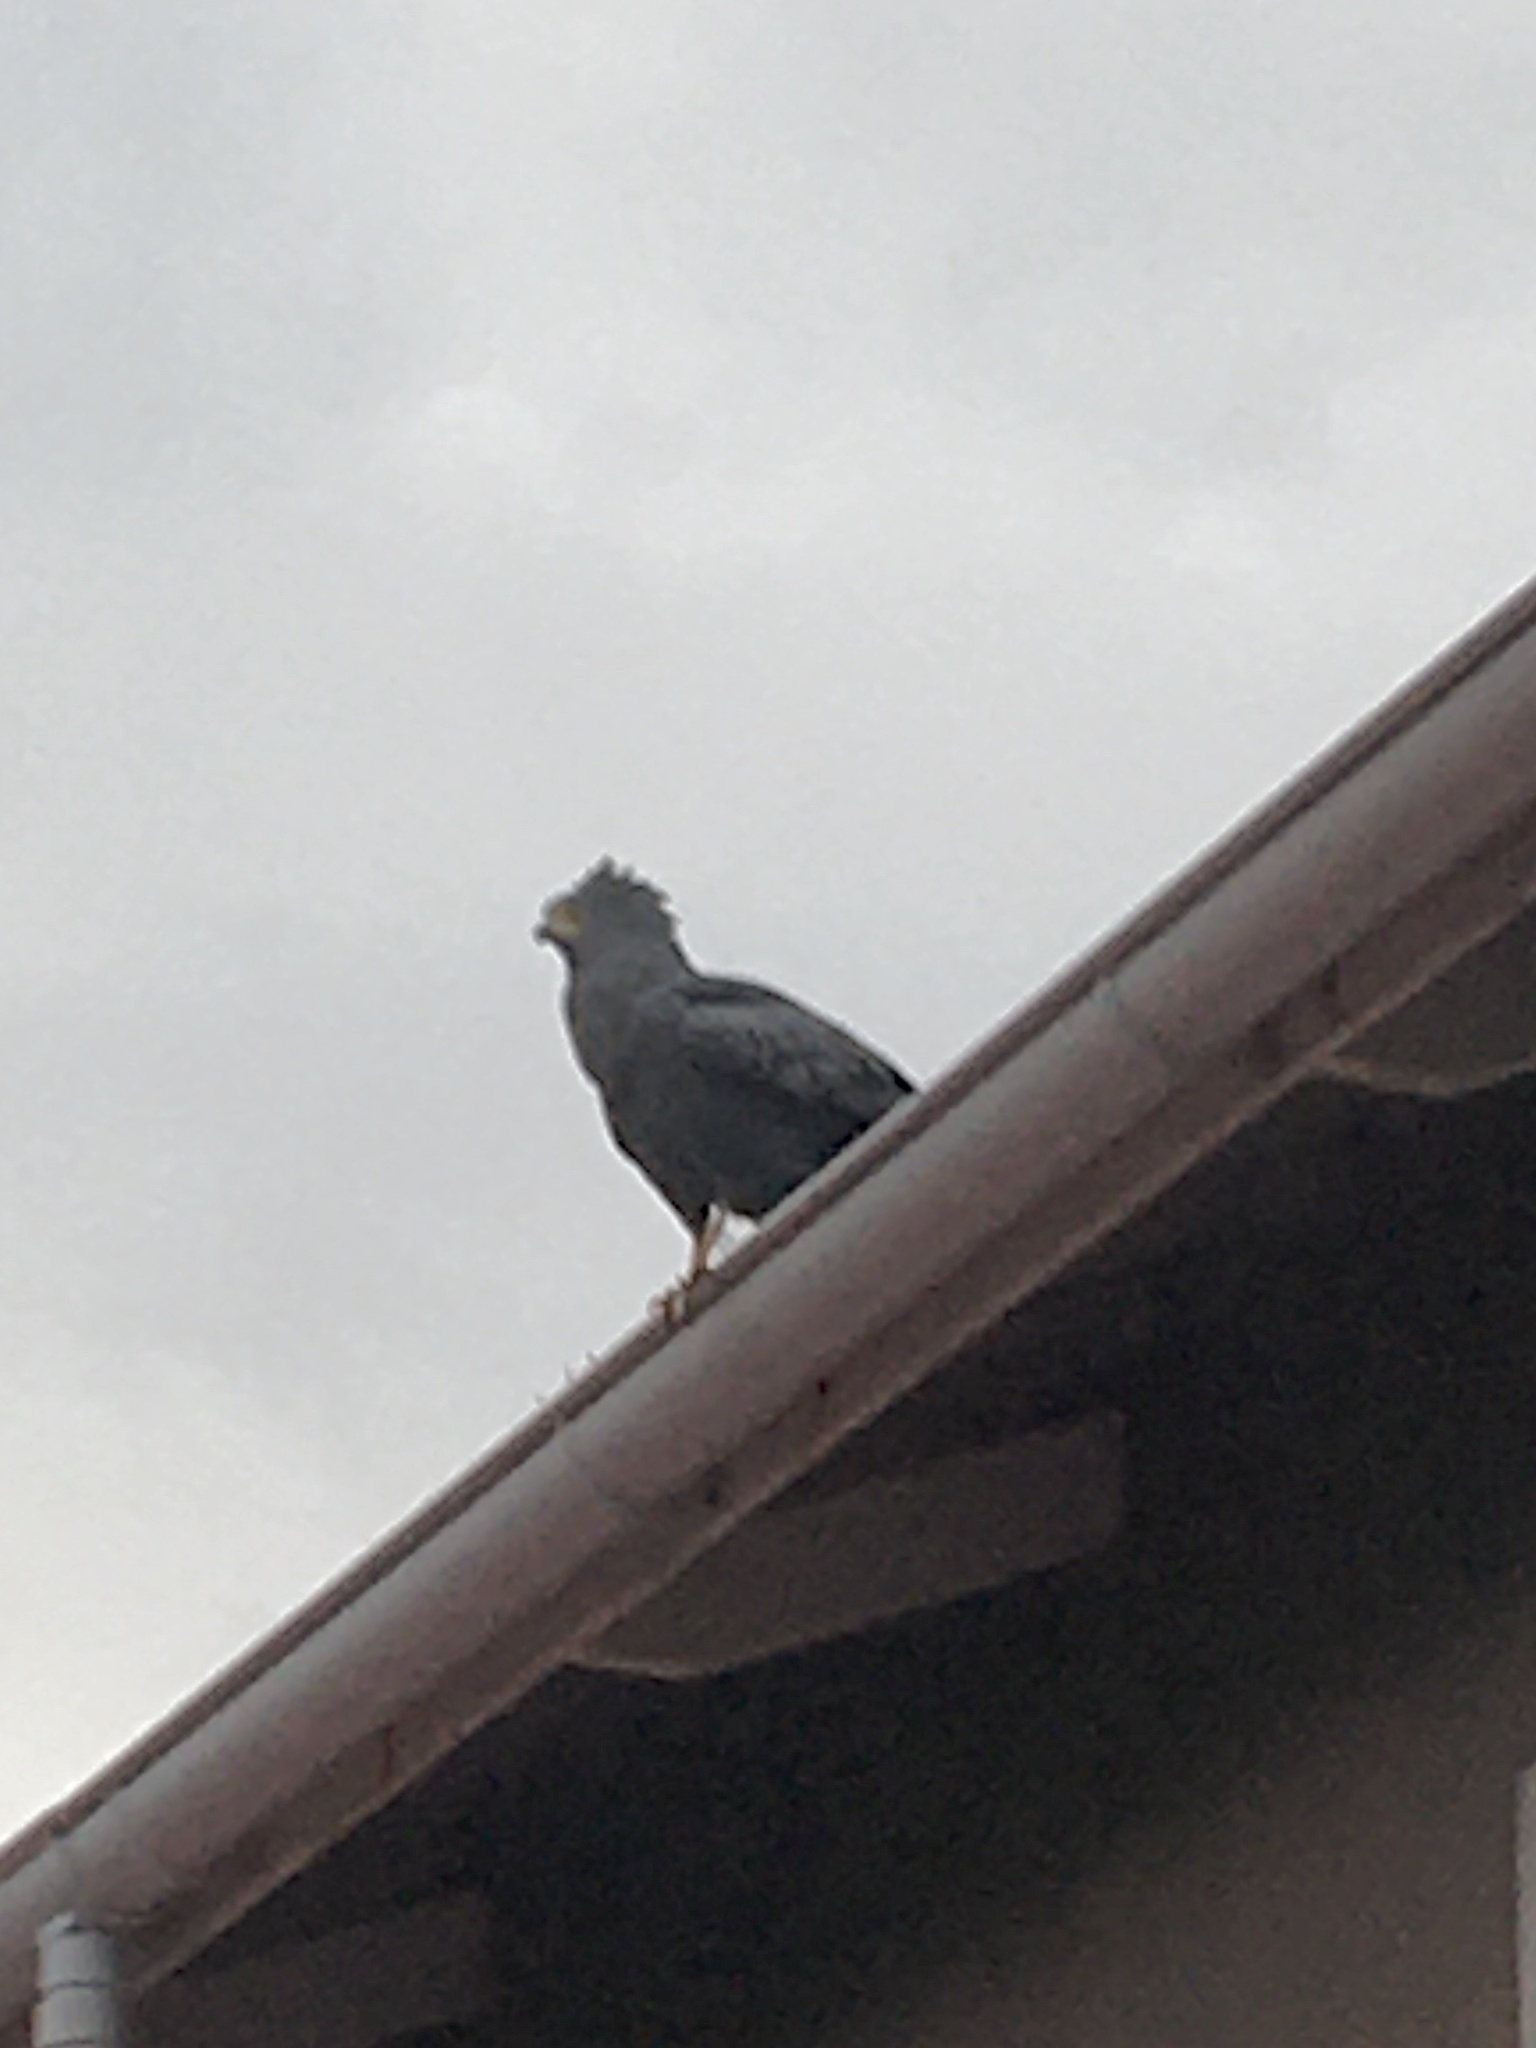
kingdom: Animalia
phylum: Chordata
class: Aves
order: Accipitriformes
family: Accipitridae
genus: Polyboroides
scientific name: Polyboroides typus
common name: African harrier-hawk
